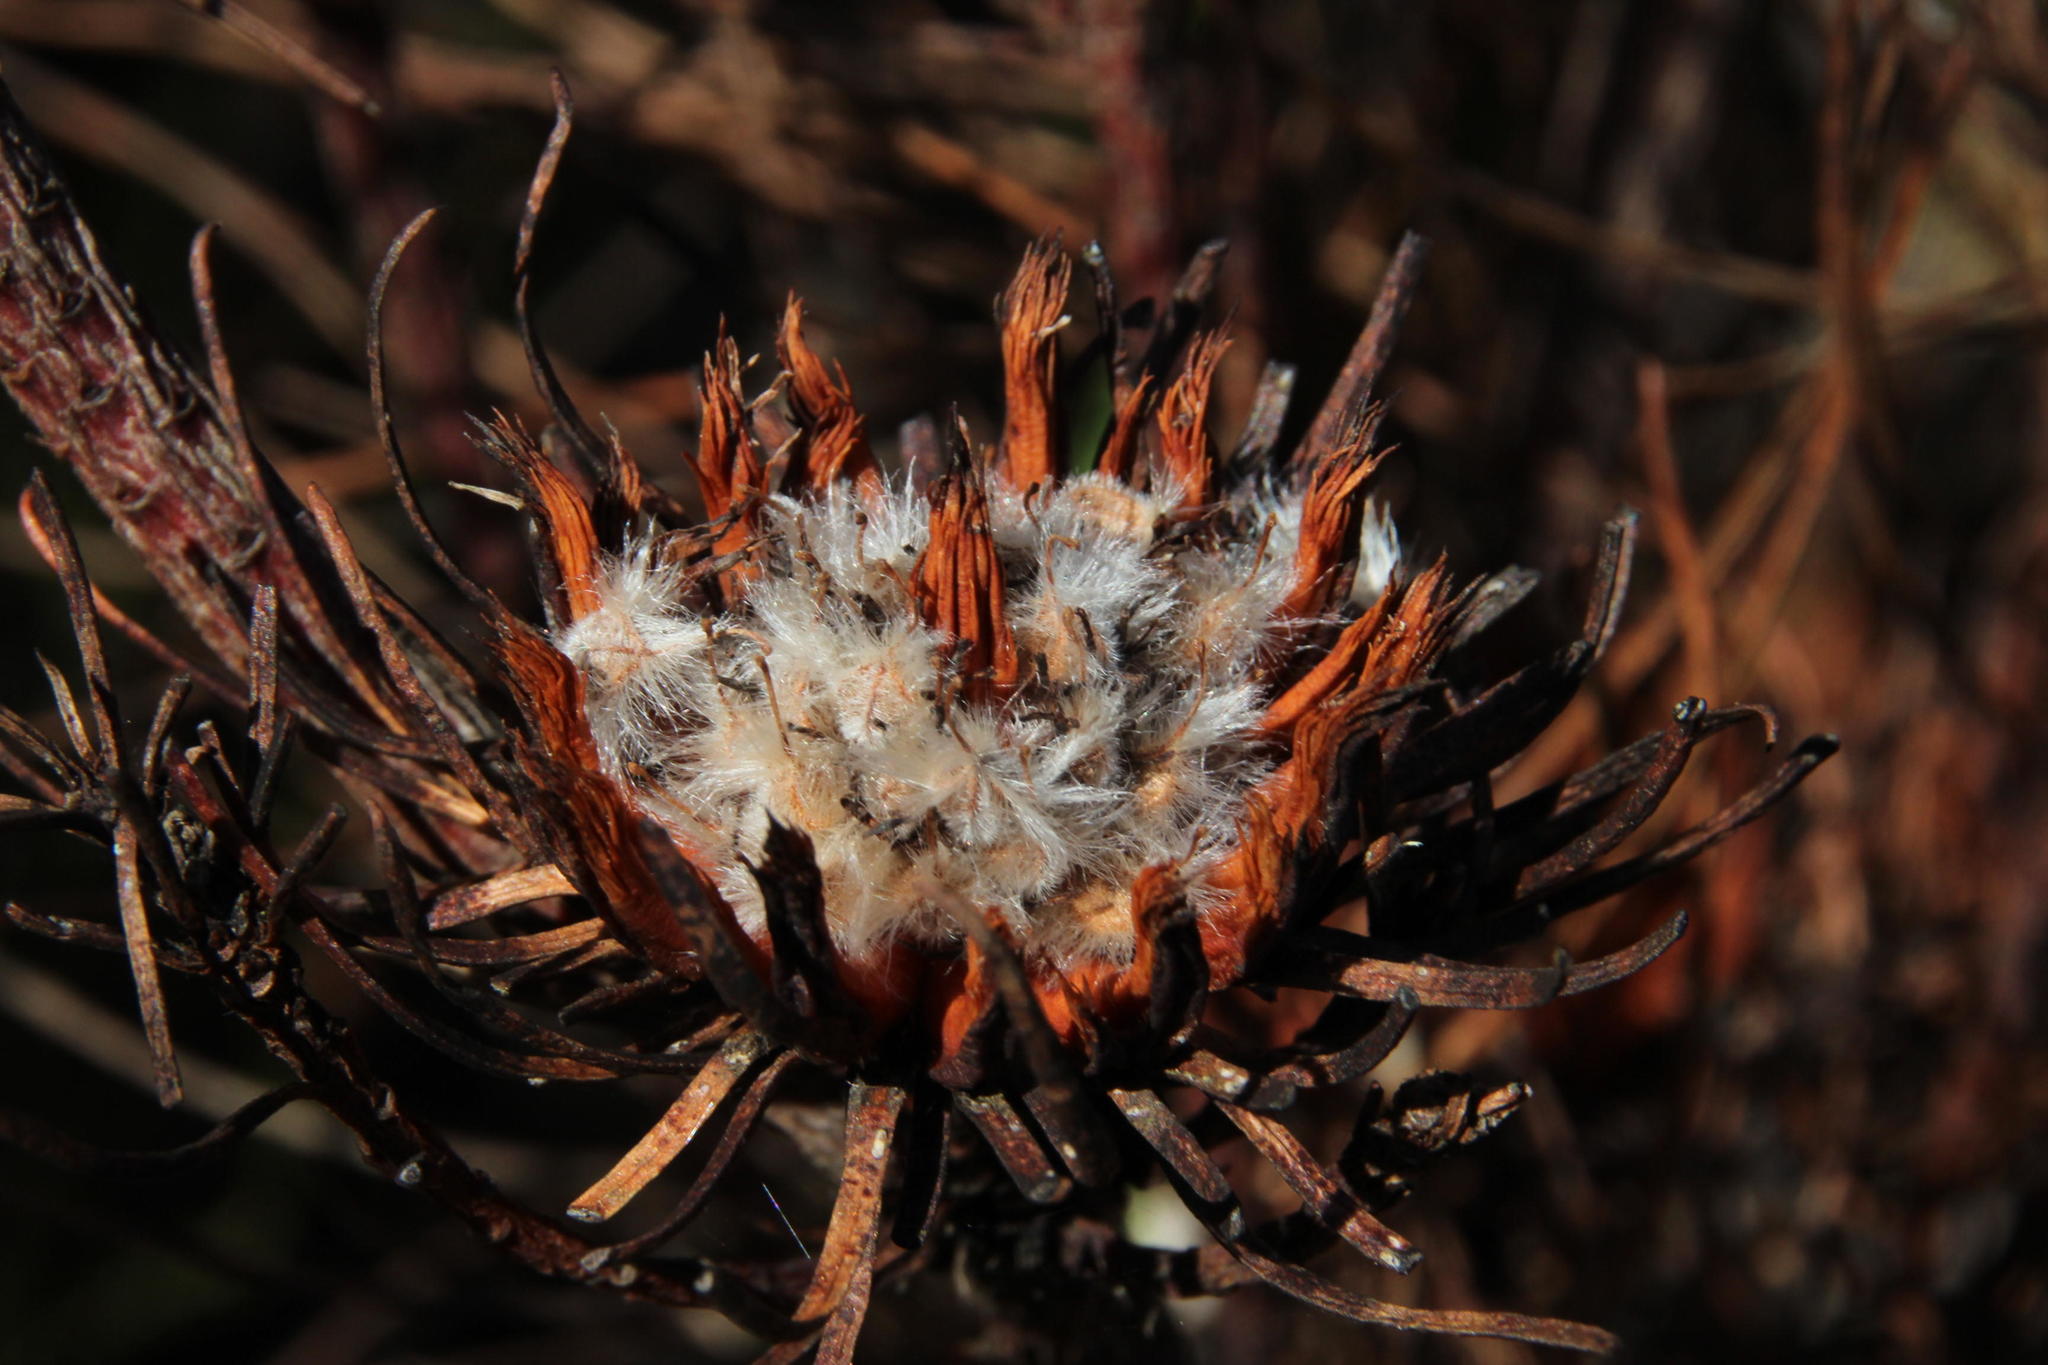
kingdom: Plantae
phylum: Tracheophyta
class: Magnoliopsida
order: Proteales
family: Proteaceae
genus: Aulax
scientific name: Aulax cancellata
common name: Channel-leaf featherbush
